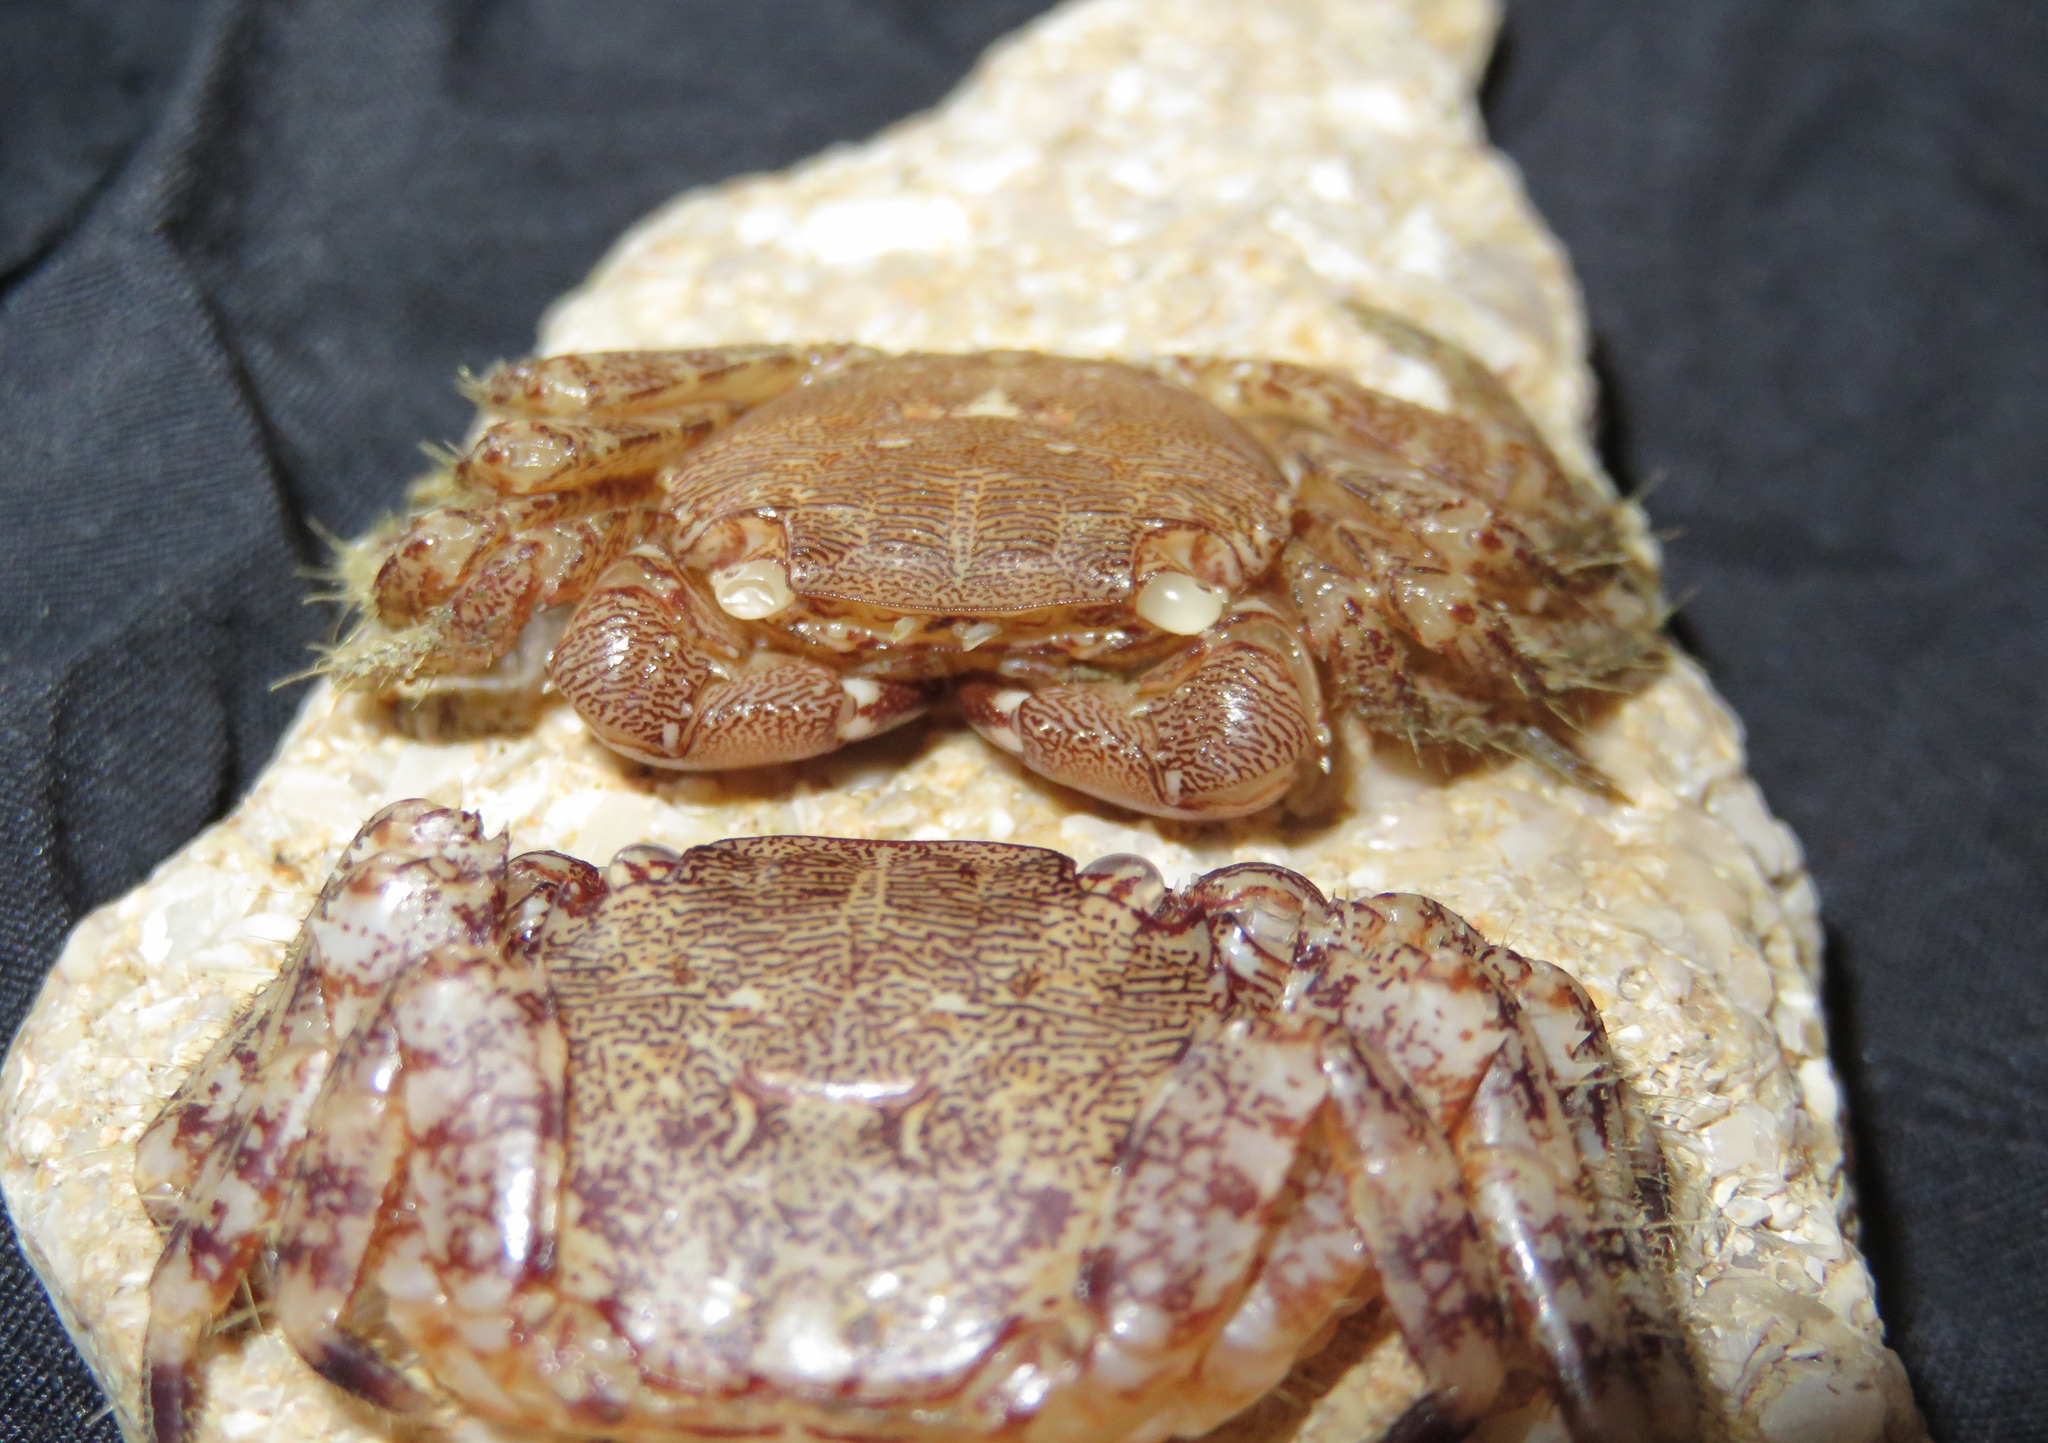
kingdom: Animalia
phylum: Arthropoda
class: Malacostraca
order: Decapoda
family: Grapsidae
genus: Pachygrapsus
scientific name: Pachygrapsus marmoratus
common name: Marbled rock crab
